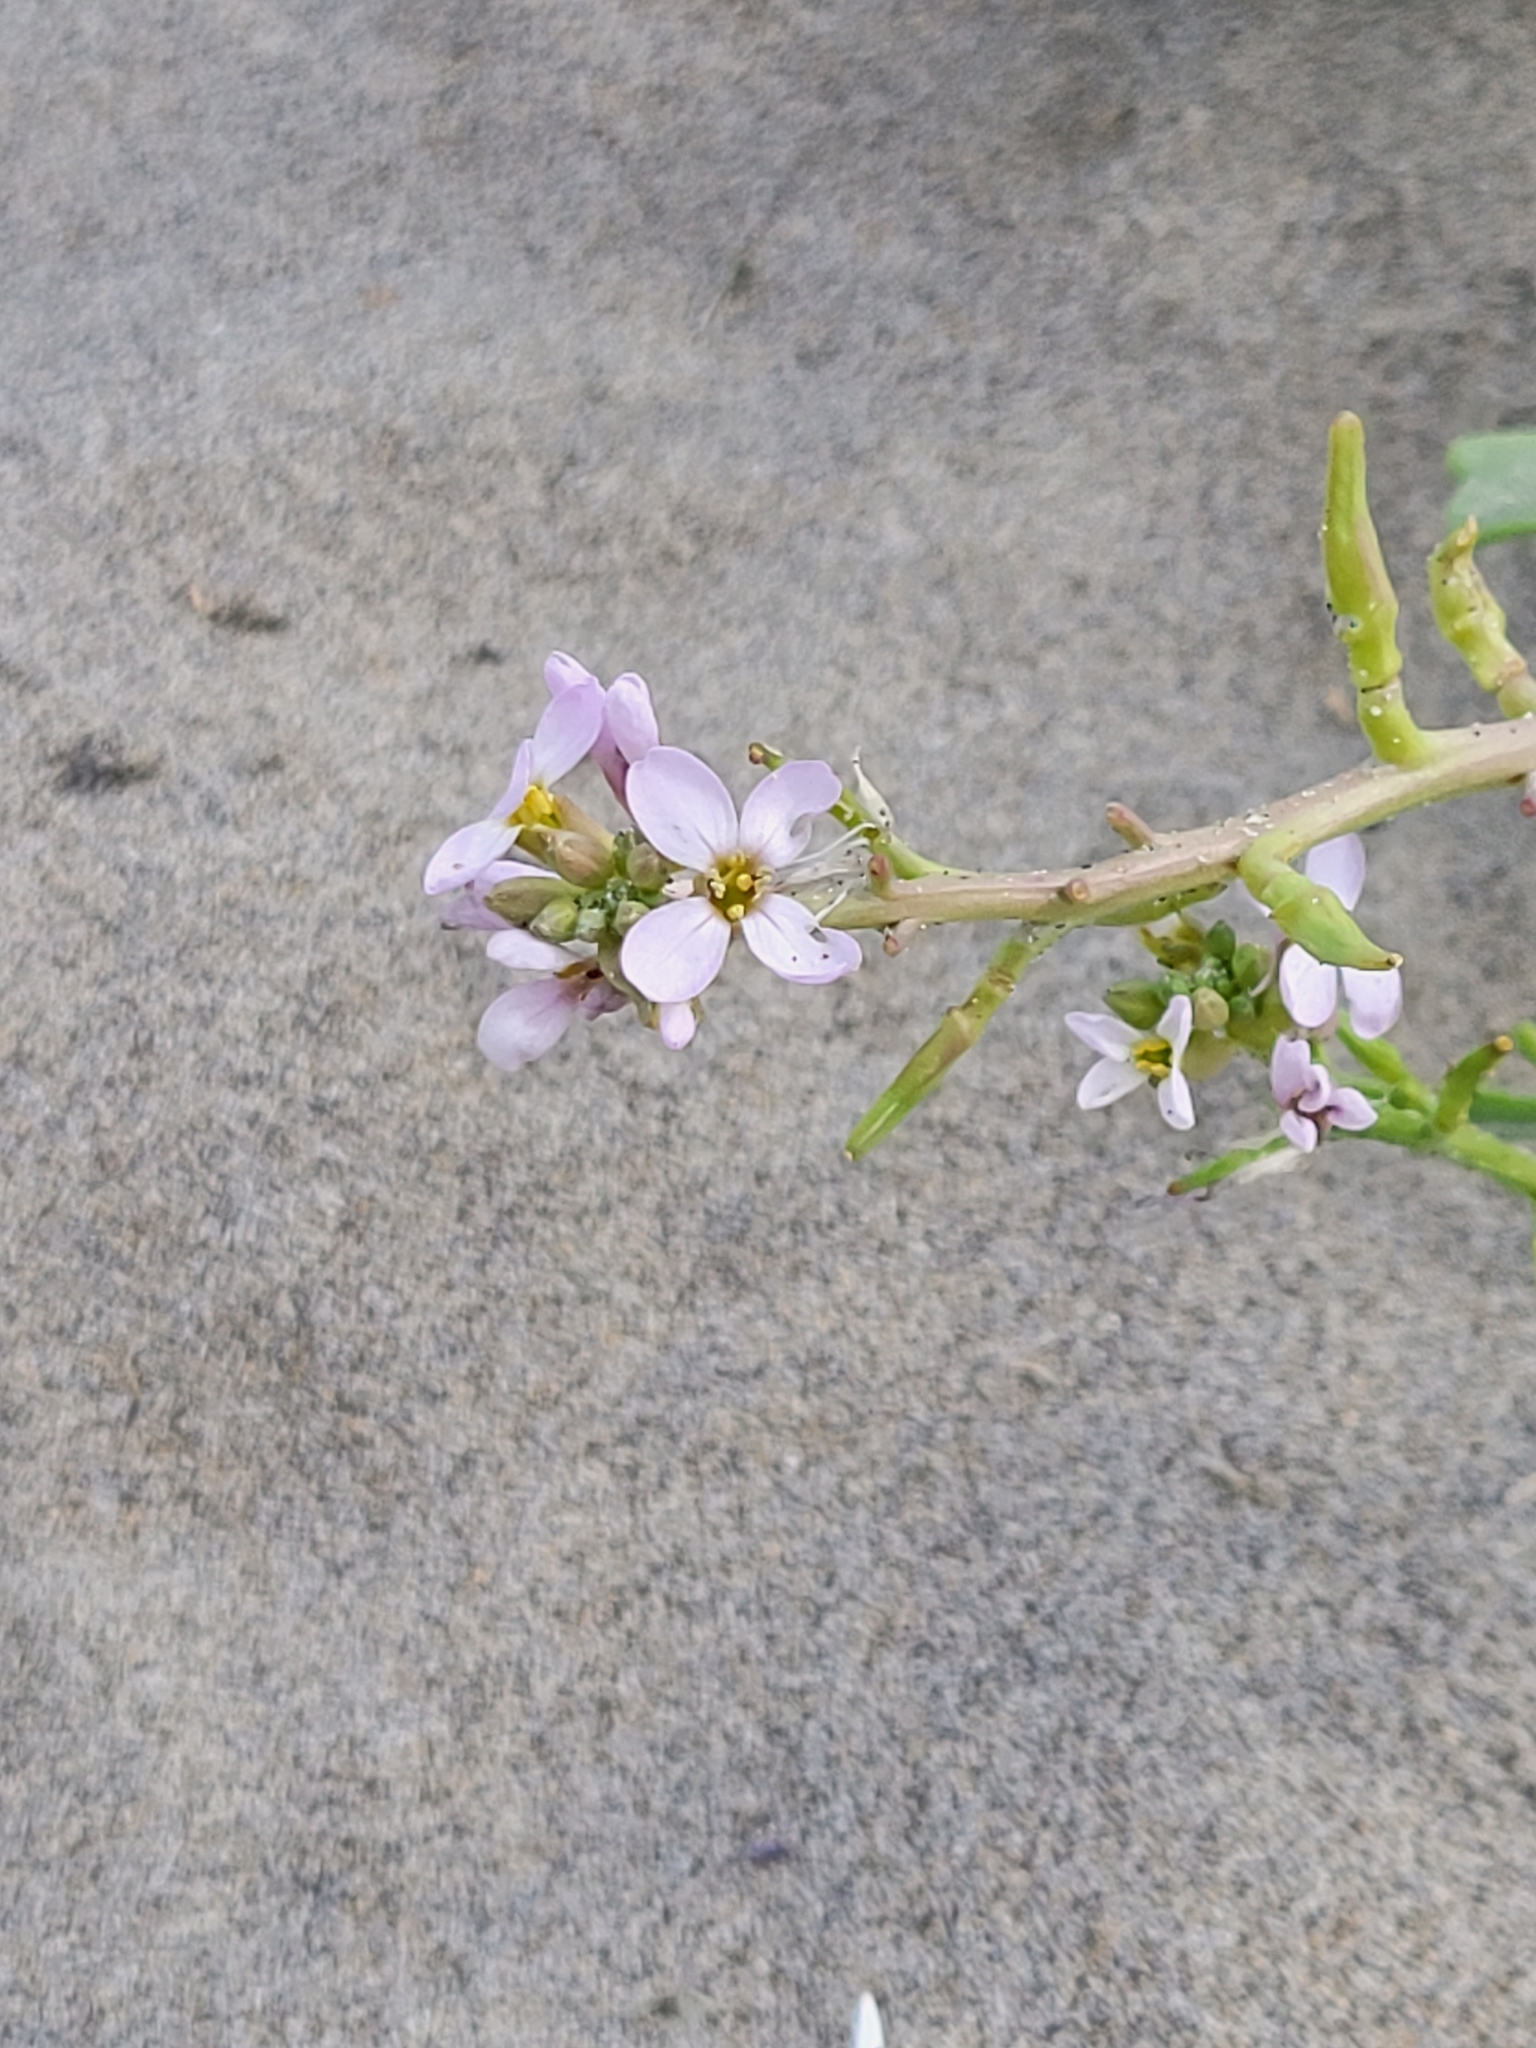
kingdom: Plantae
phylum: Tracheophyta
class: Magnoliopsida
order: Brassicales
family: Brassicaceae
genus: Cakile
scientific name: Cakile maritima
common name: Sea rocket
